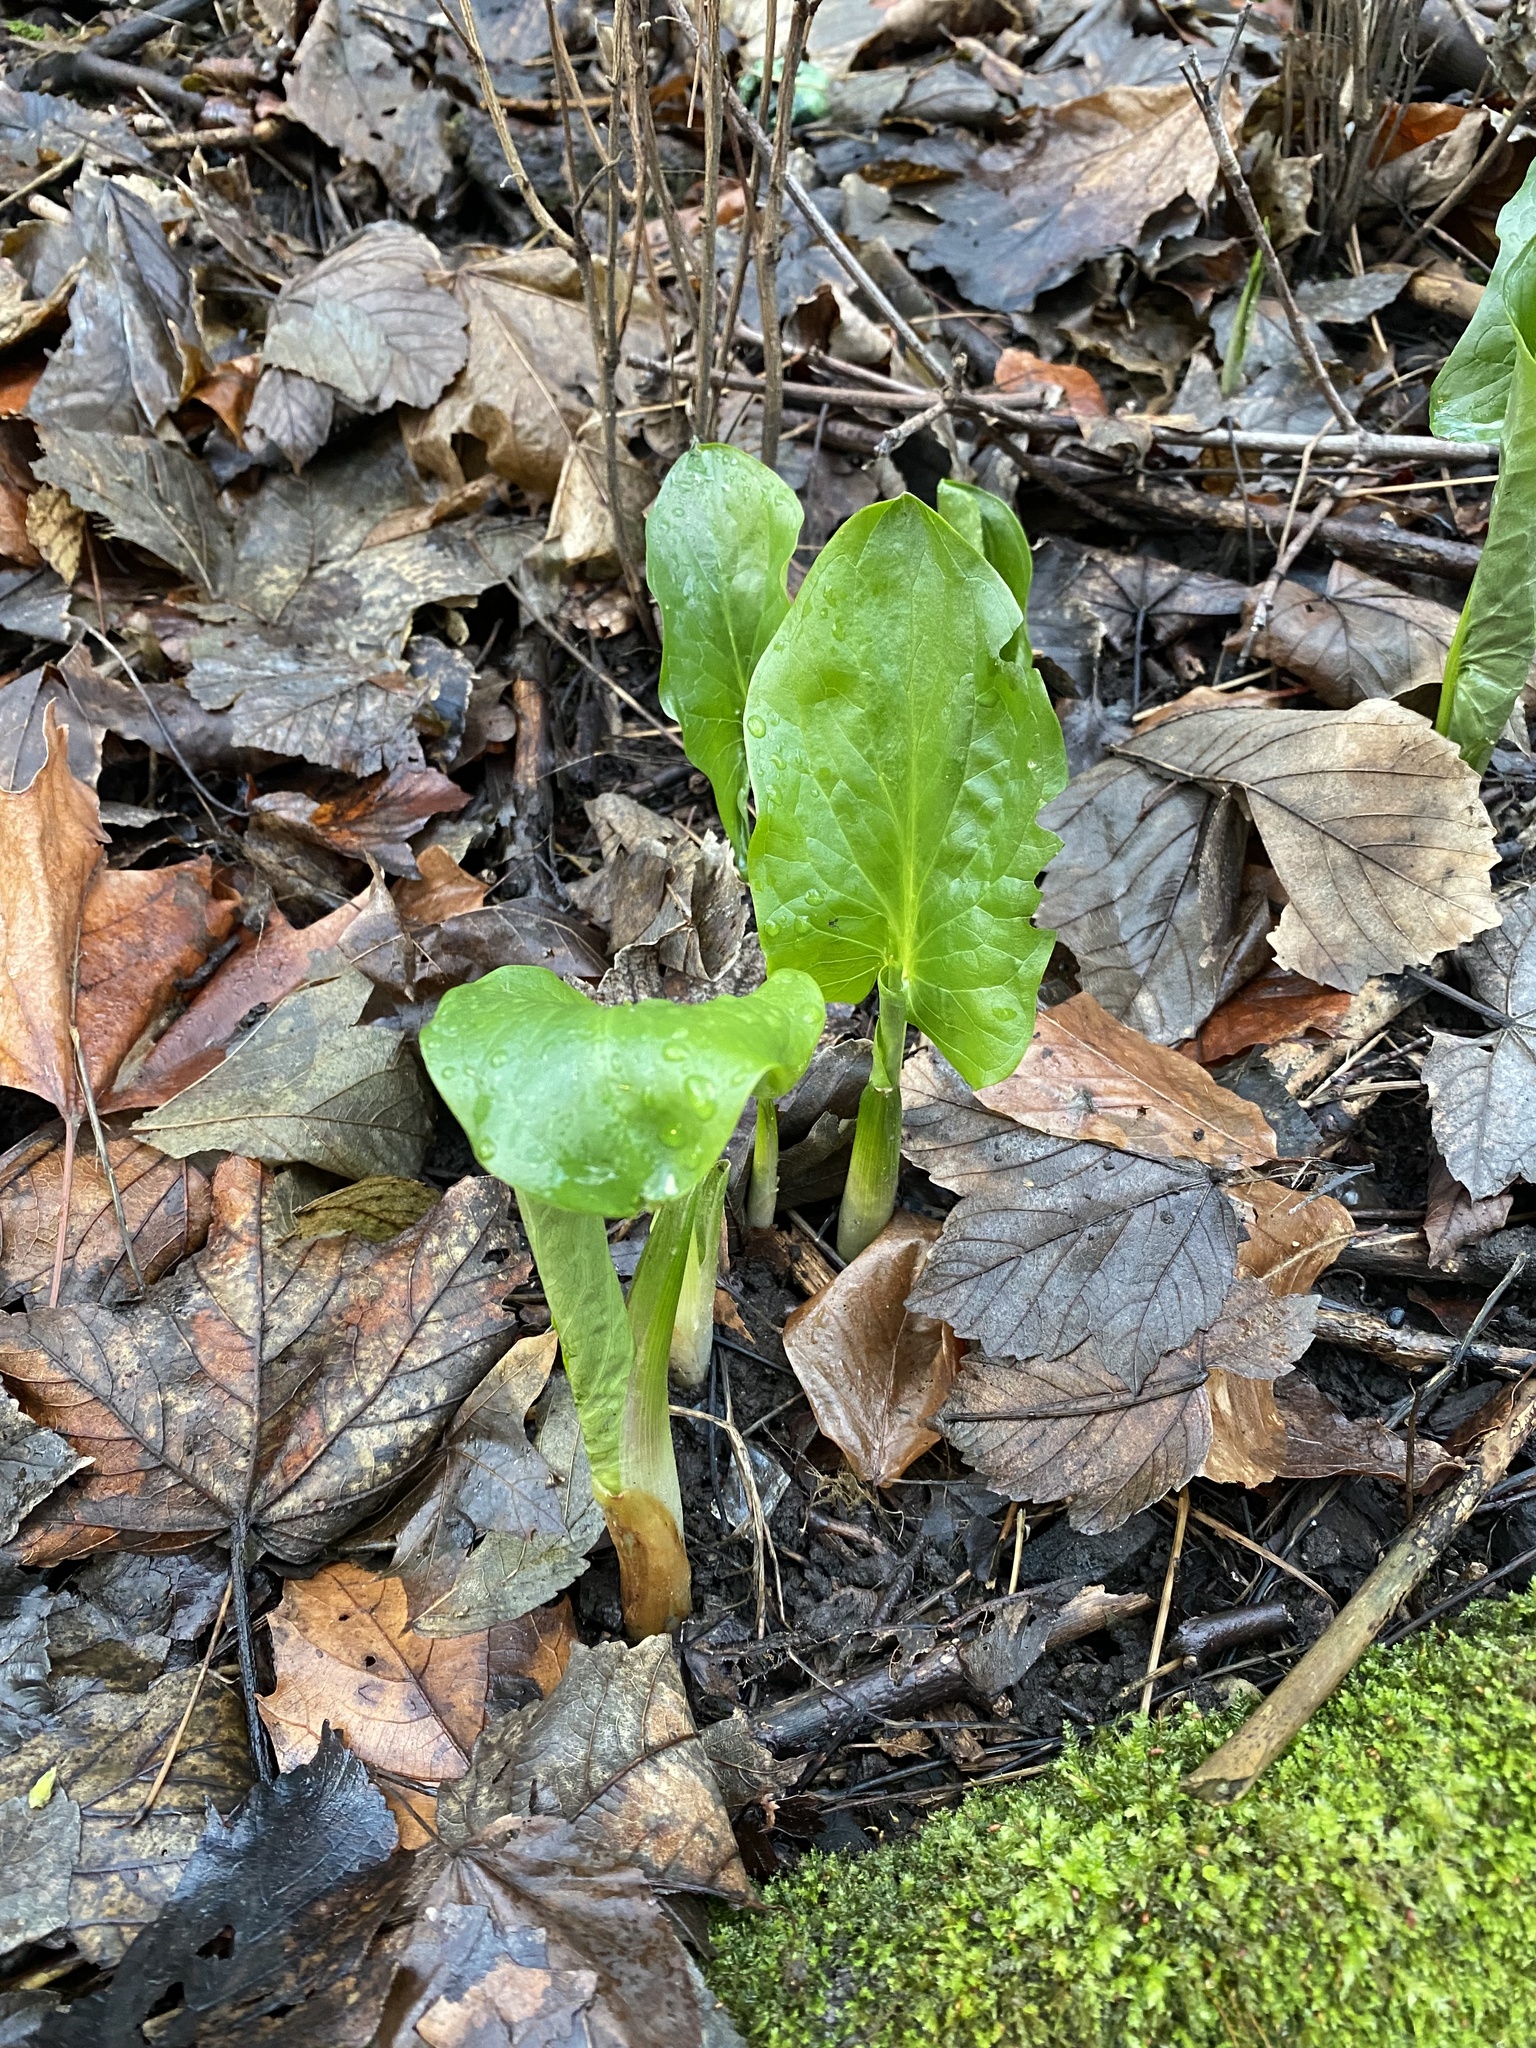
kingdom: Plantae
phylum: Tracheophyta
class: Liliopsida
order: Alismatales
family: Araceae
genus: Arum
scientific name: Arum maculatum
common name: Lords-and-ladies
